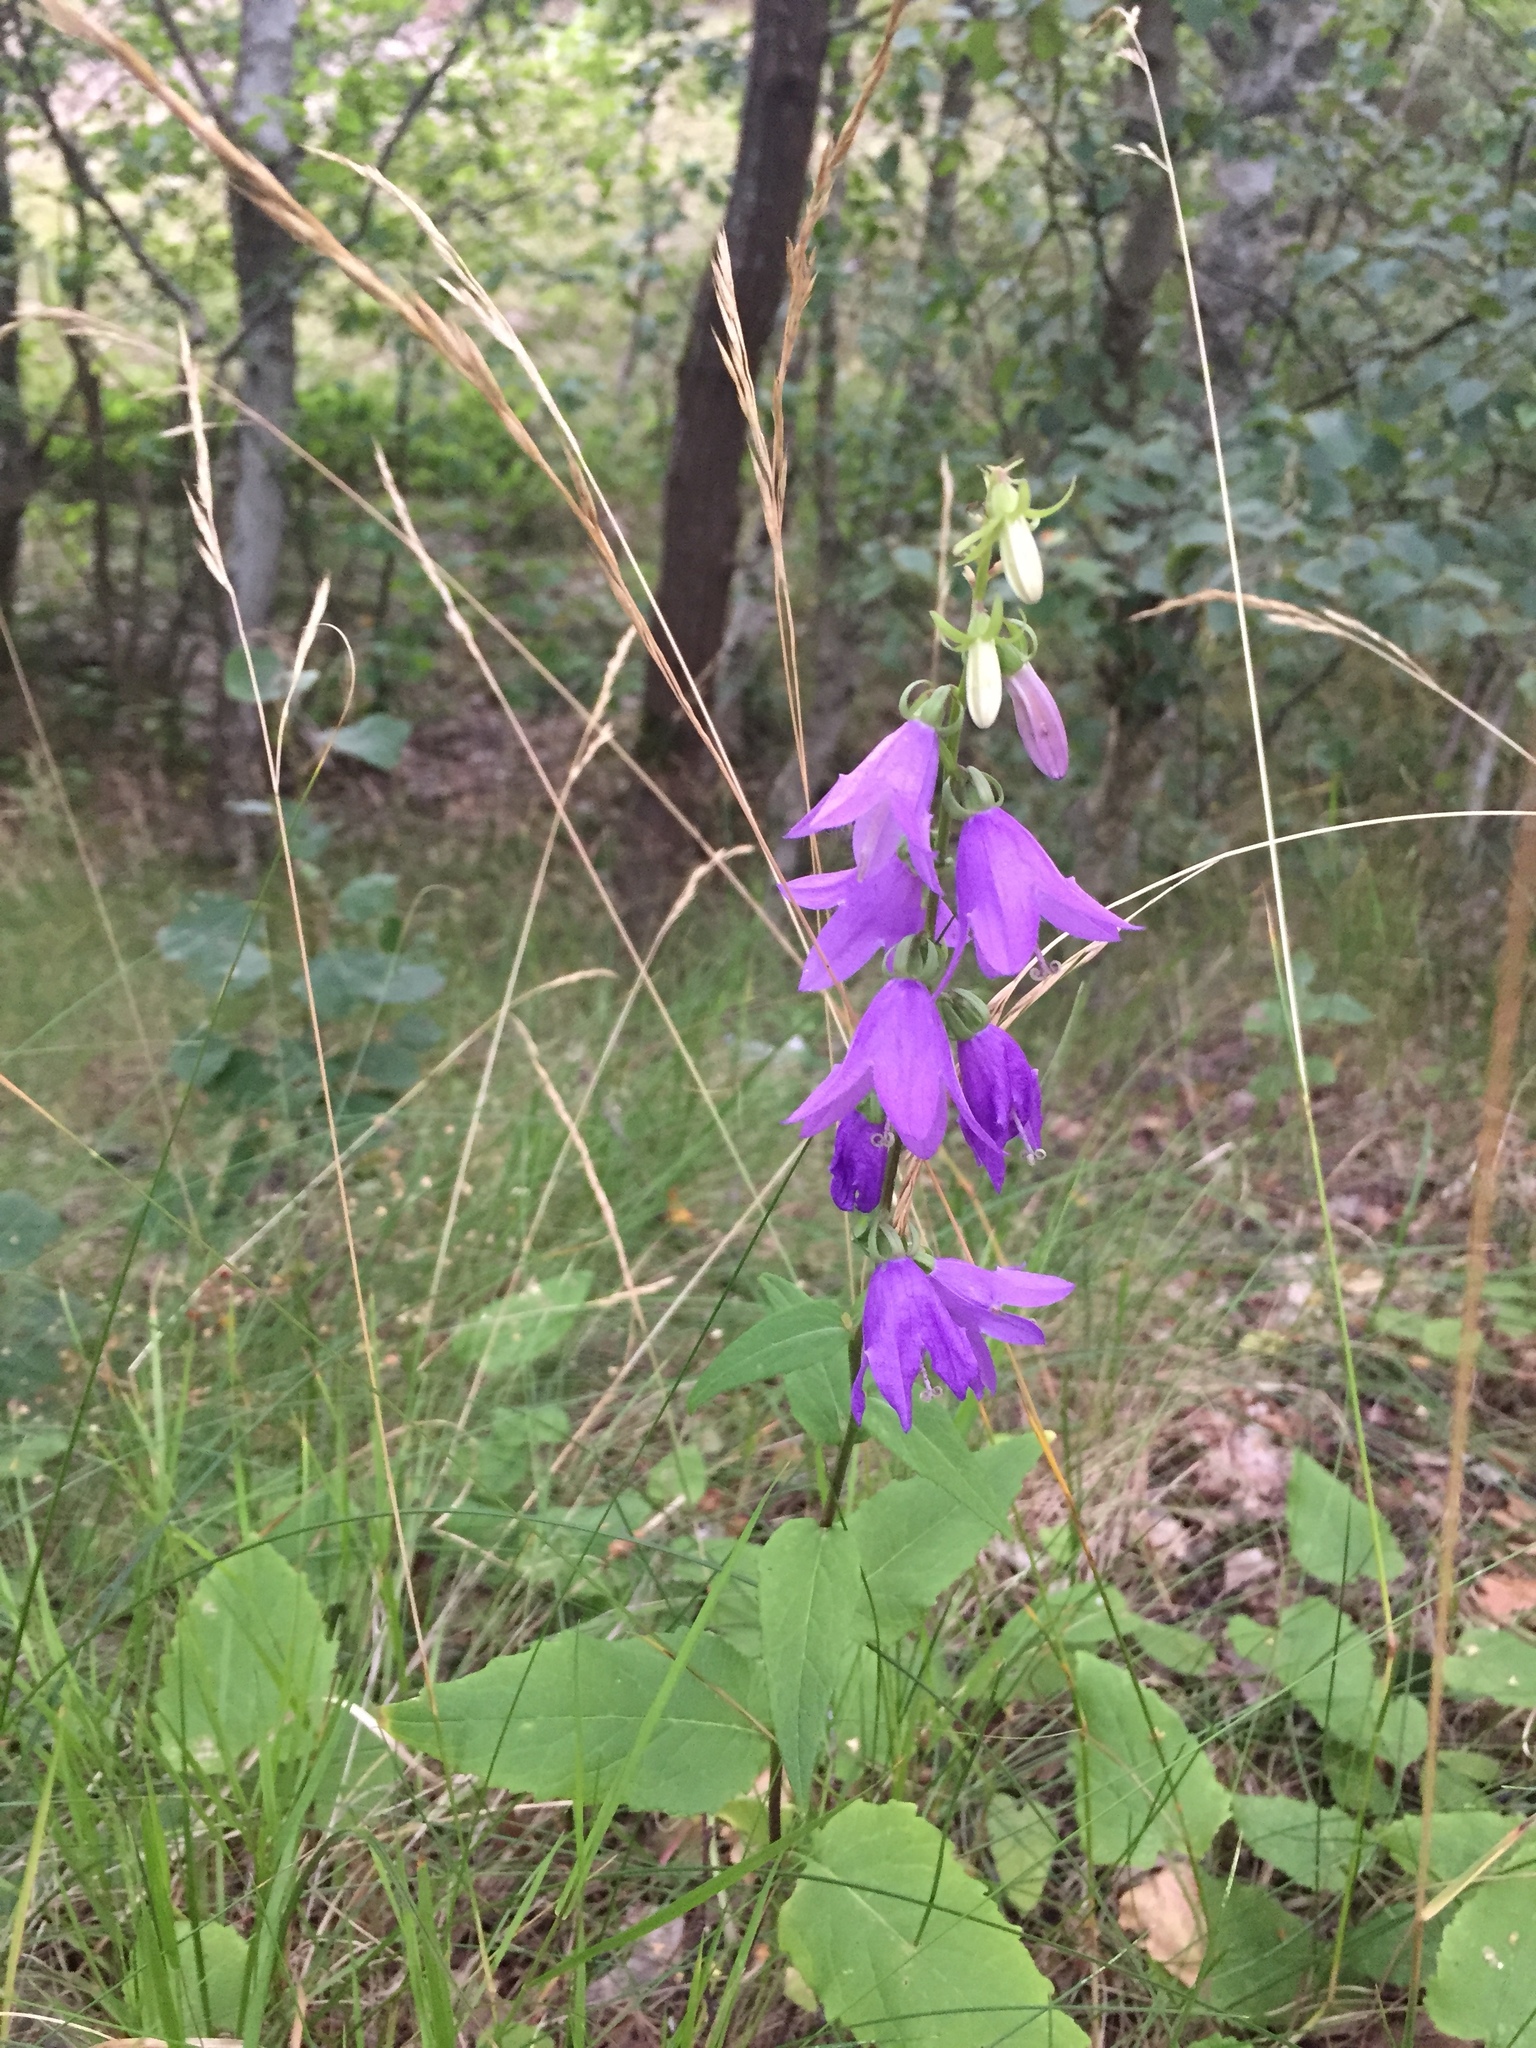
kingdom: Plantae
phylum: Tracheophyta
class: Magnoliopsida
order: Asterales
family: Campanulaceae
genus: Campanula
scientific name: Campanula rapunculoides
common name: Creeping bellflower
